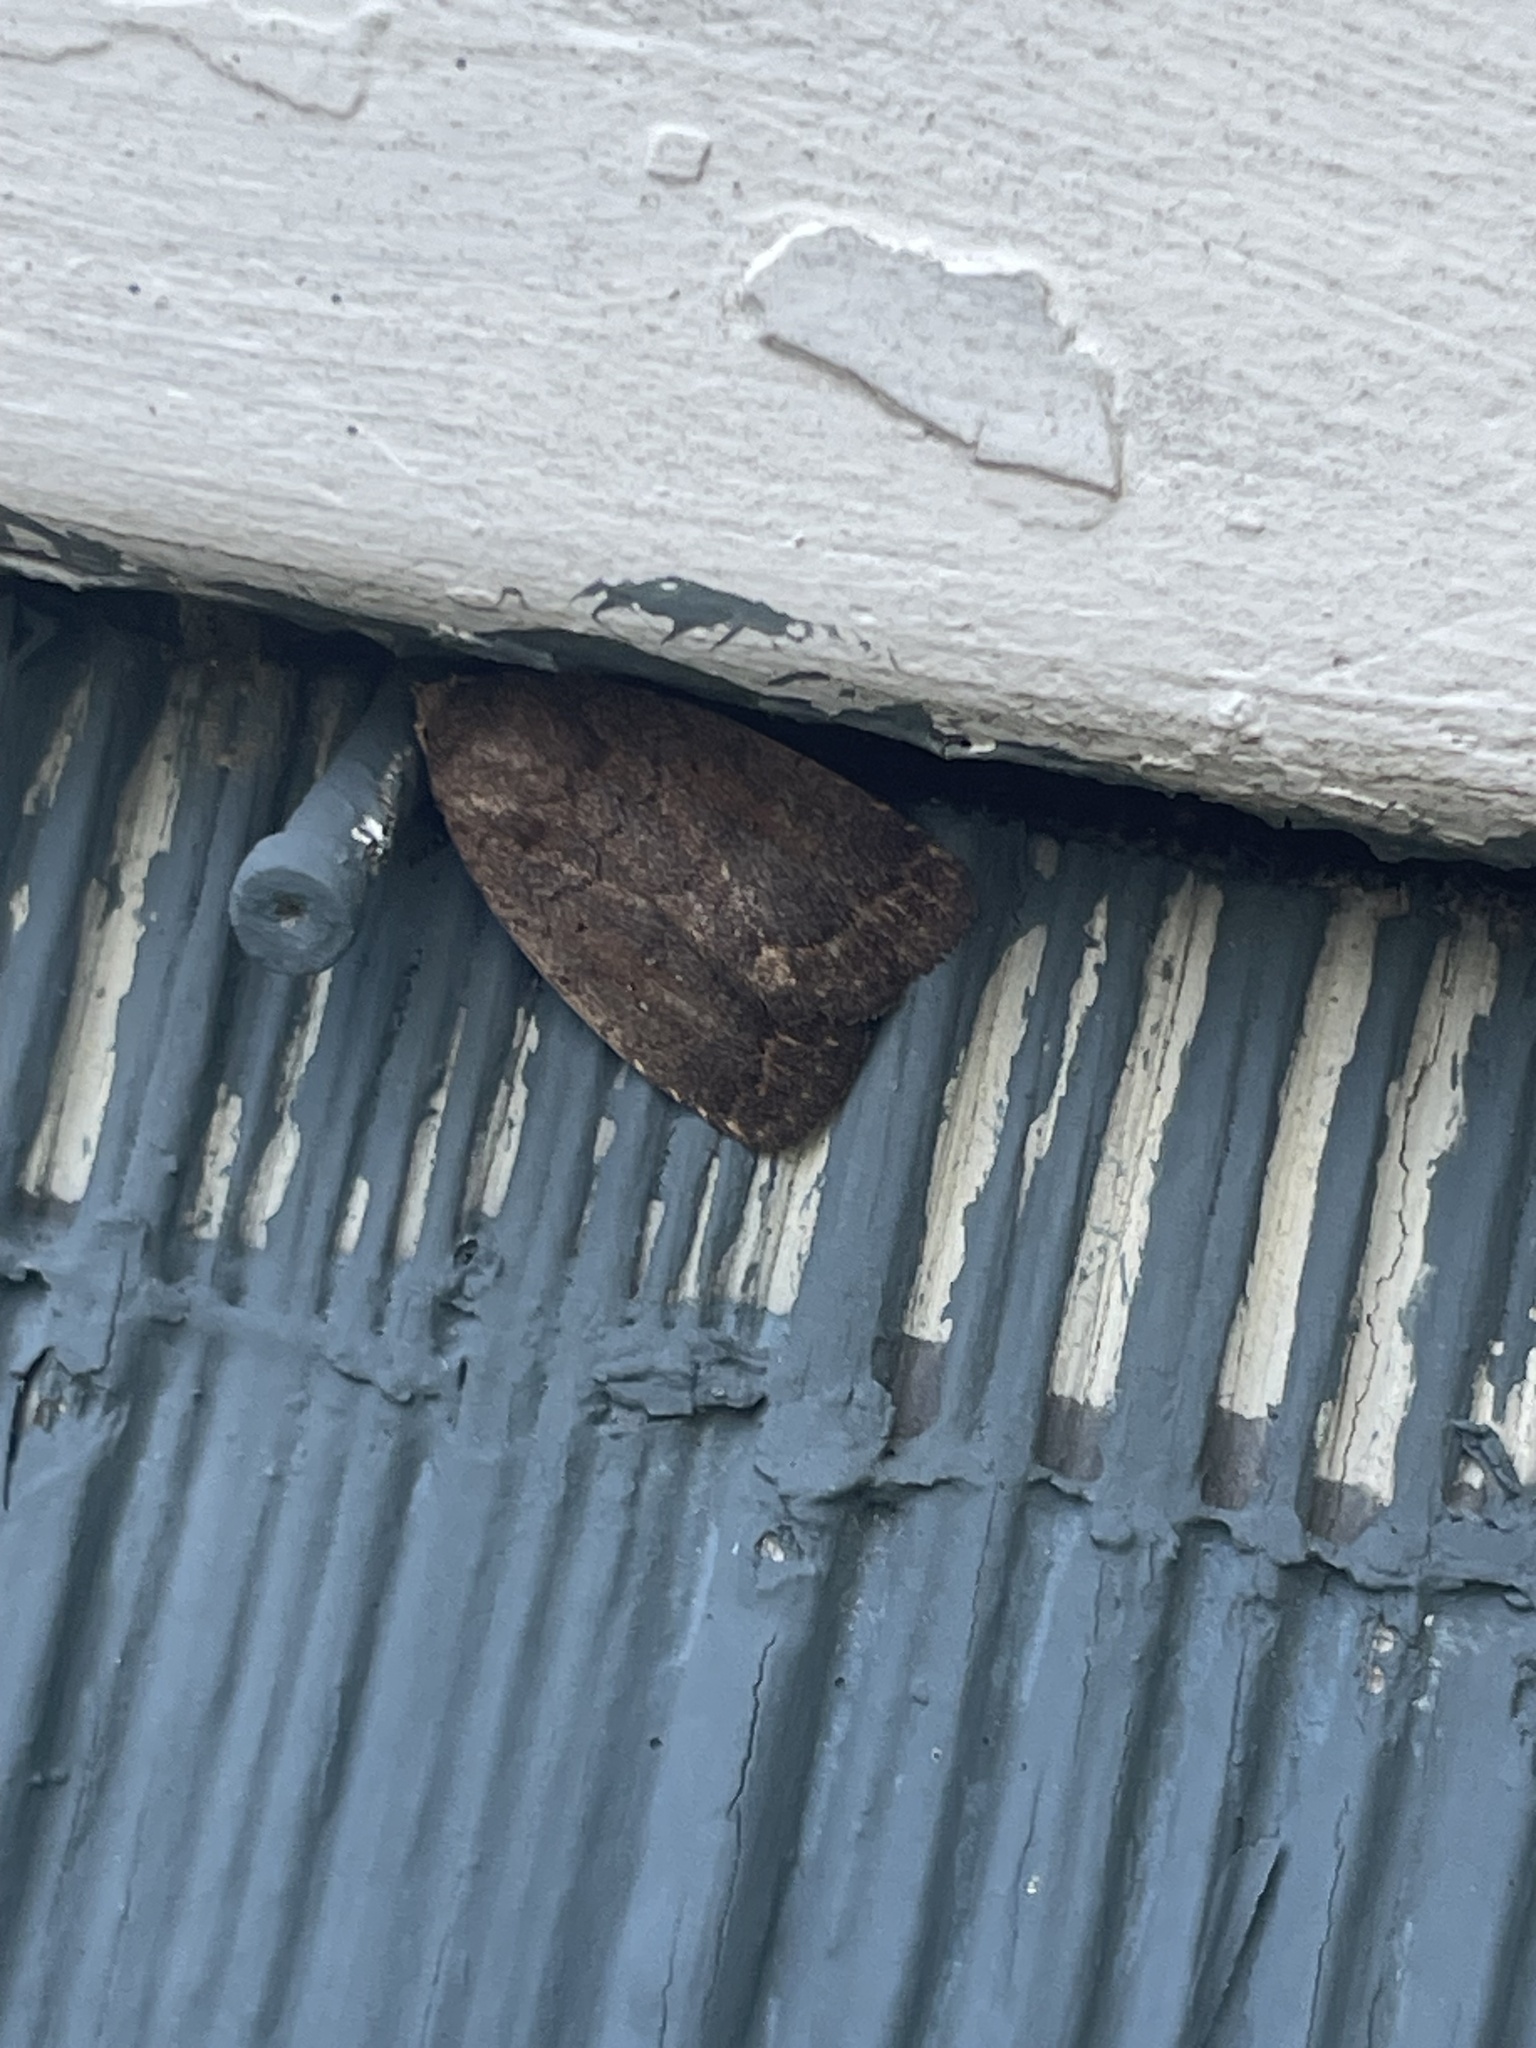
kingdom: Animalia
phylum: Arthropoda
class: Insecta
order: Lepidoptera
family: Noctuidae
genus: Athetis
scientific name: Athetis tarda
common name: Slowpoke moth
